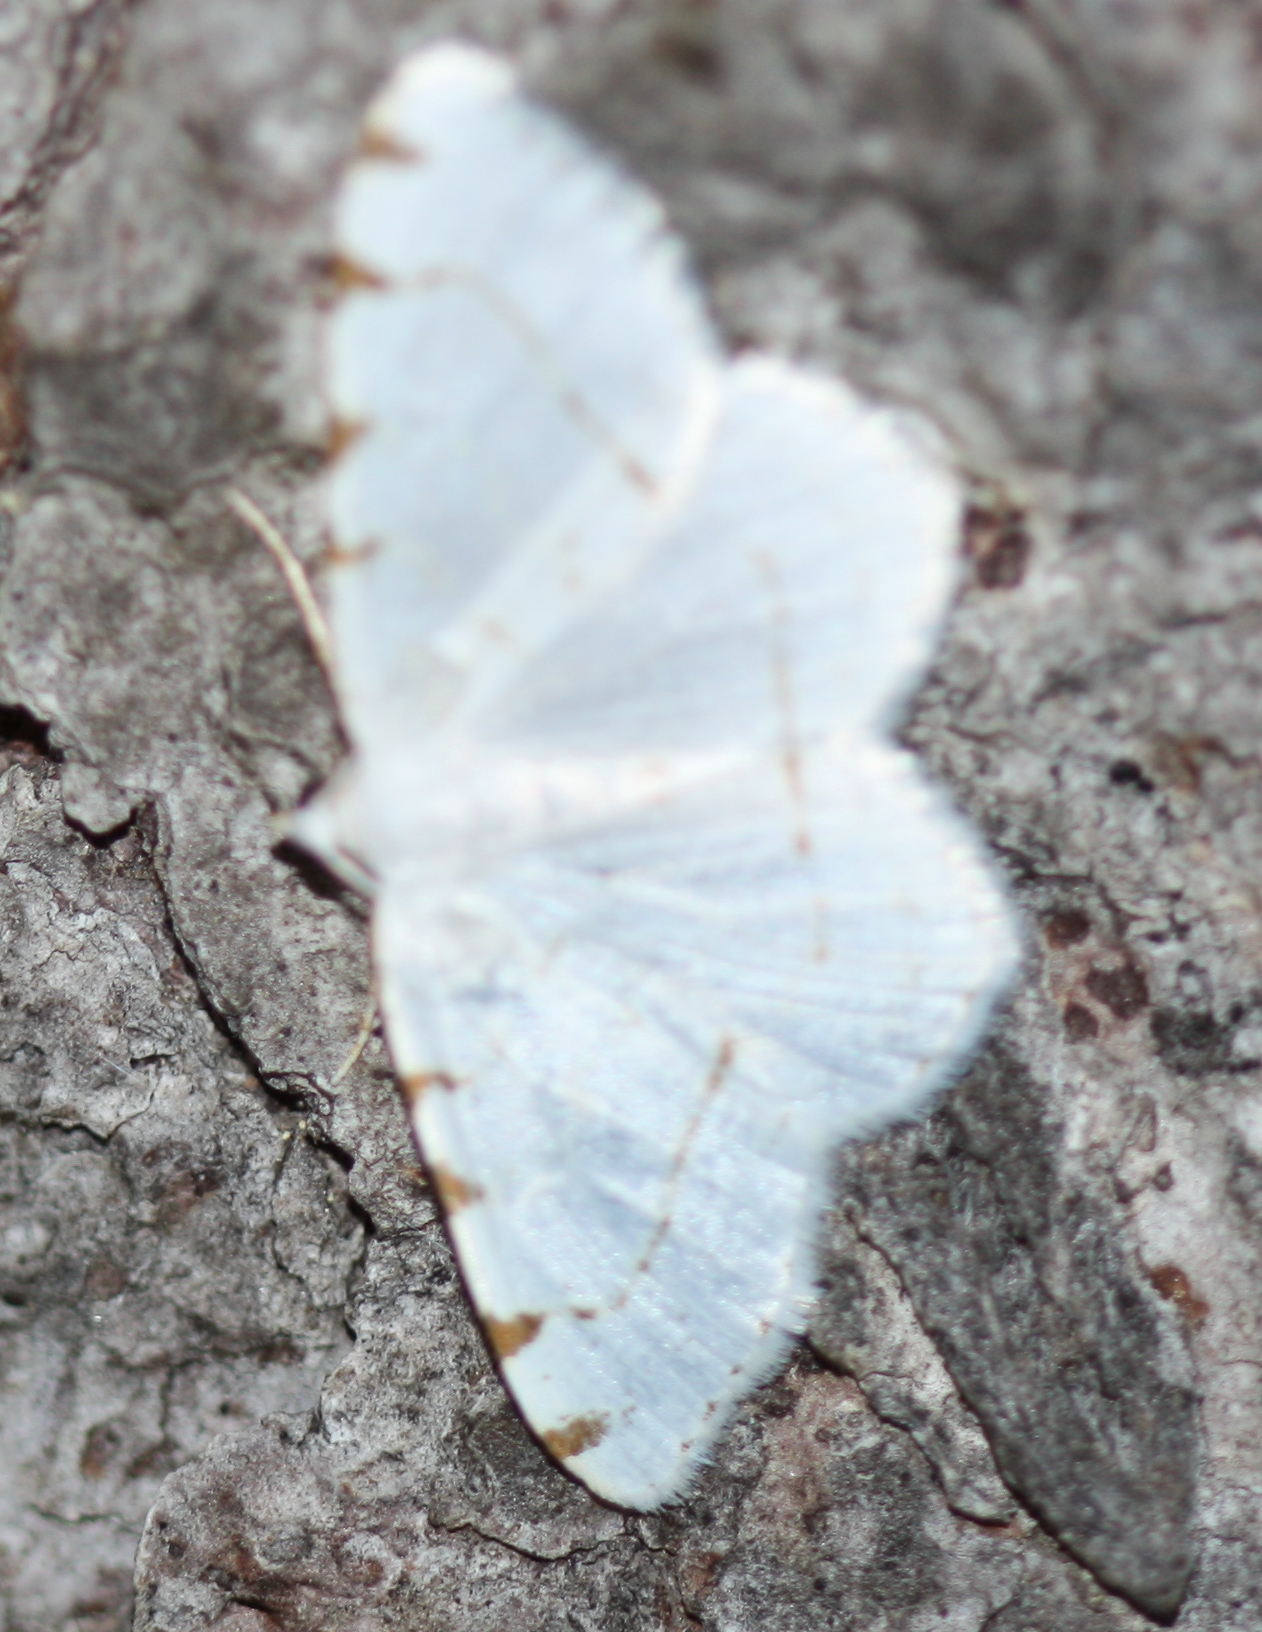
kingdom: Animalia
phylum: Arthropoda
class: Insecta
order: Lepidoptera
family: Geometridae
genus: Macaria
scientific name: Macaria pustularia
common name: Lesser maple spanworm moth
